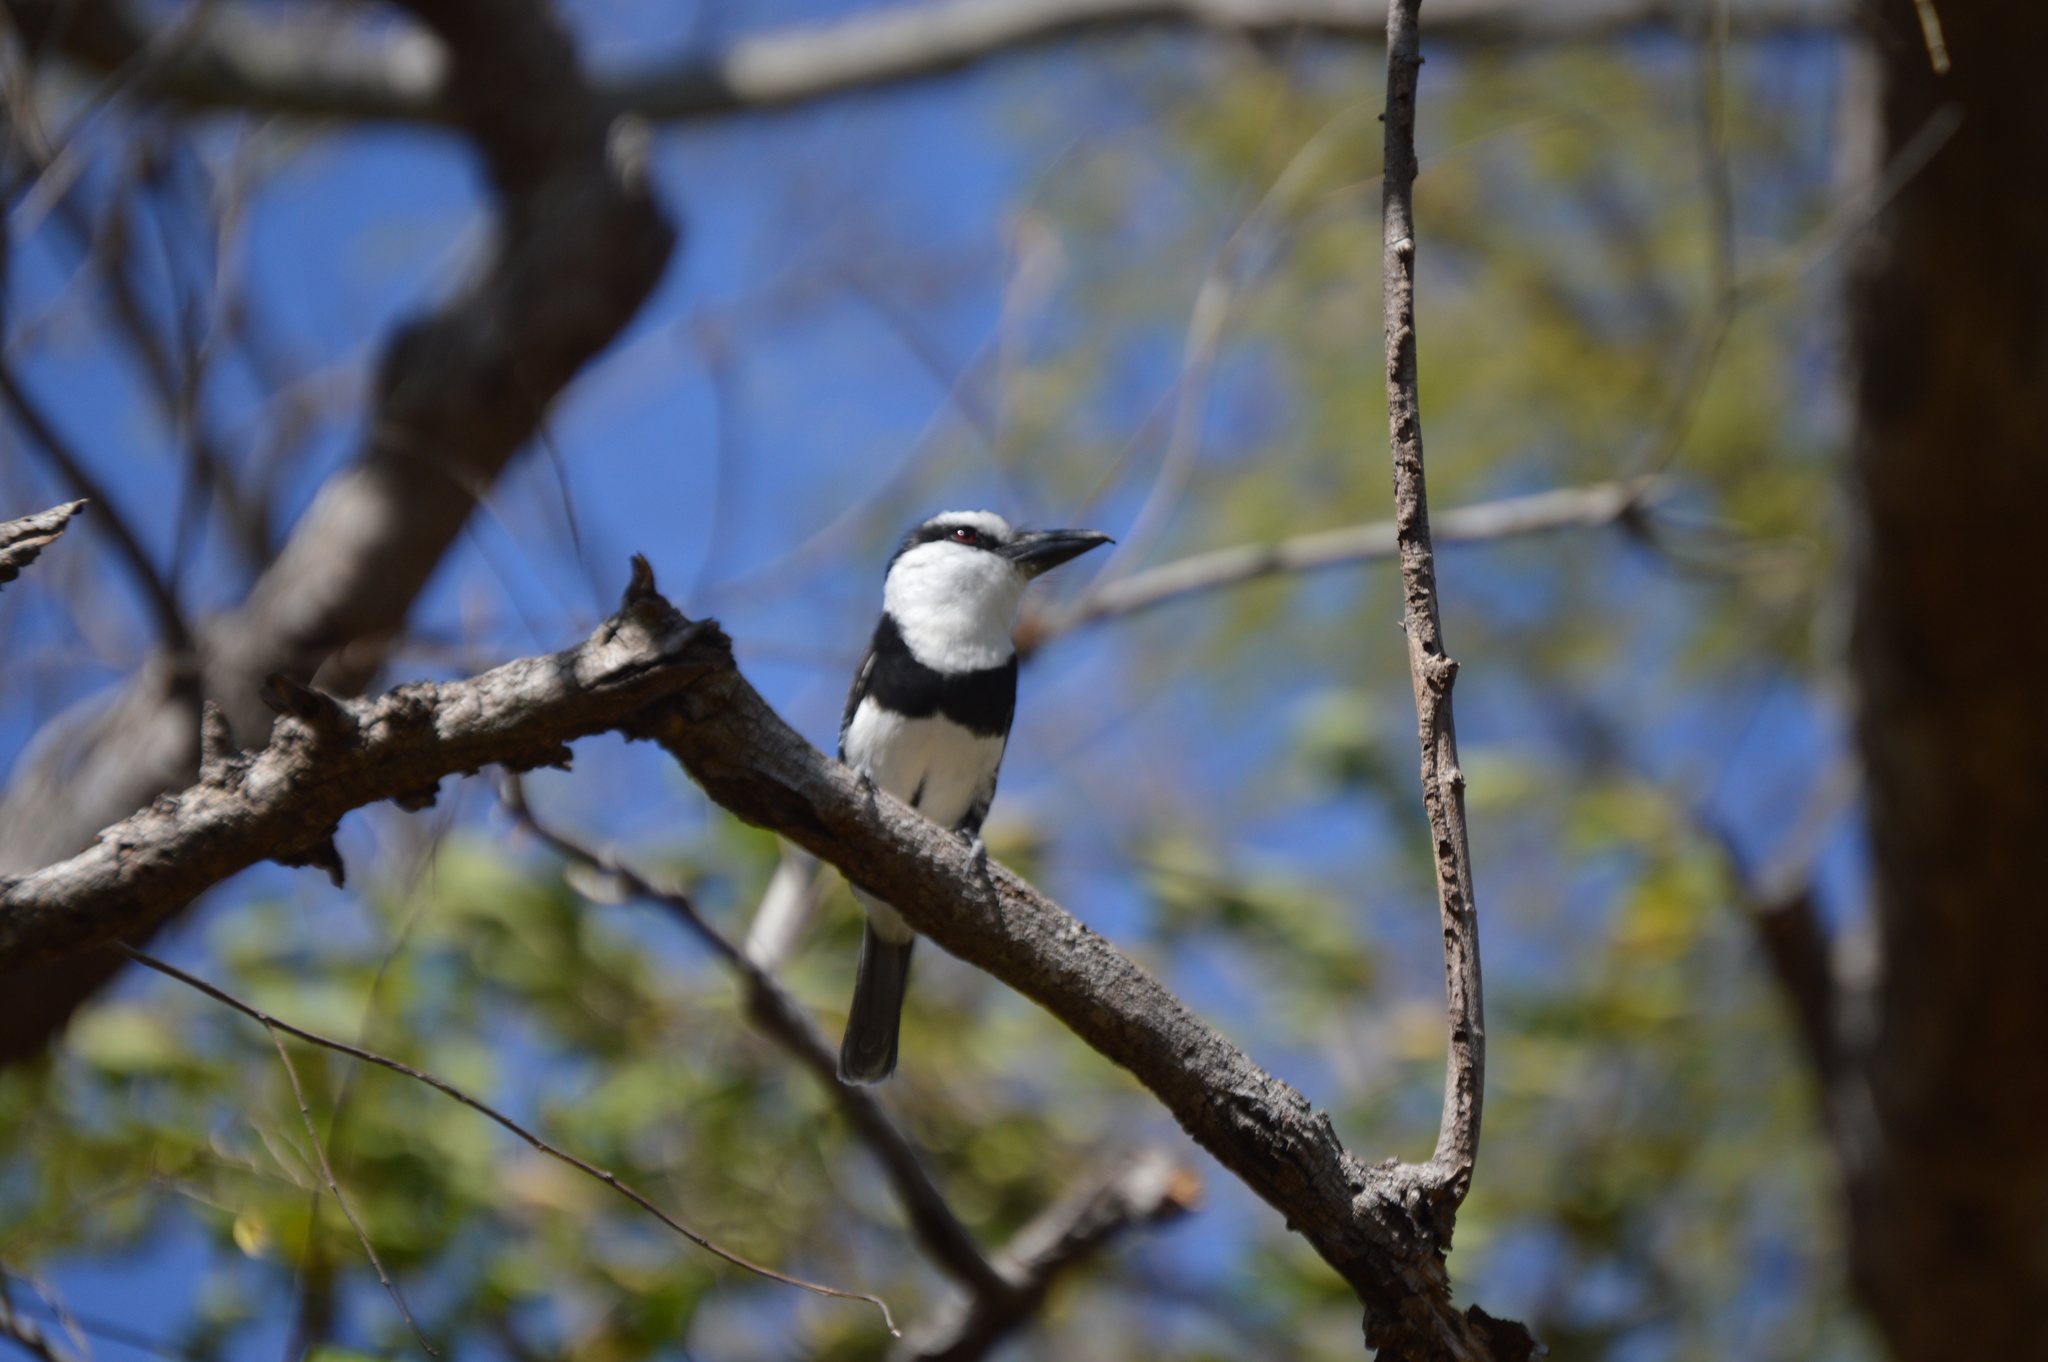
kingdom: Animalia
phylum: Chordata
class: Aves
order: Piciformes
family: Bucconidae
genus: Notharchus
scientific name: Notharchus hyperrhynchus
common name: White-necked puffbird
